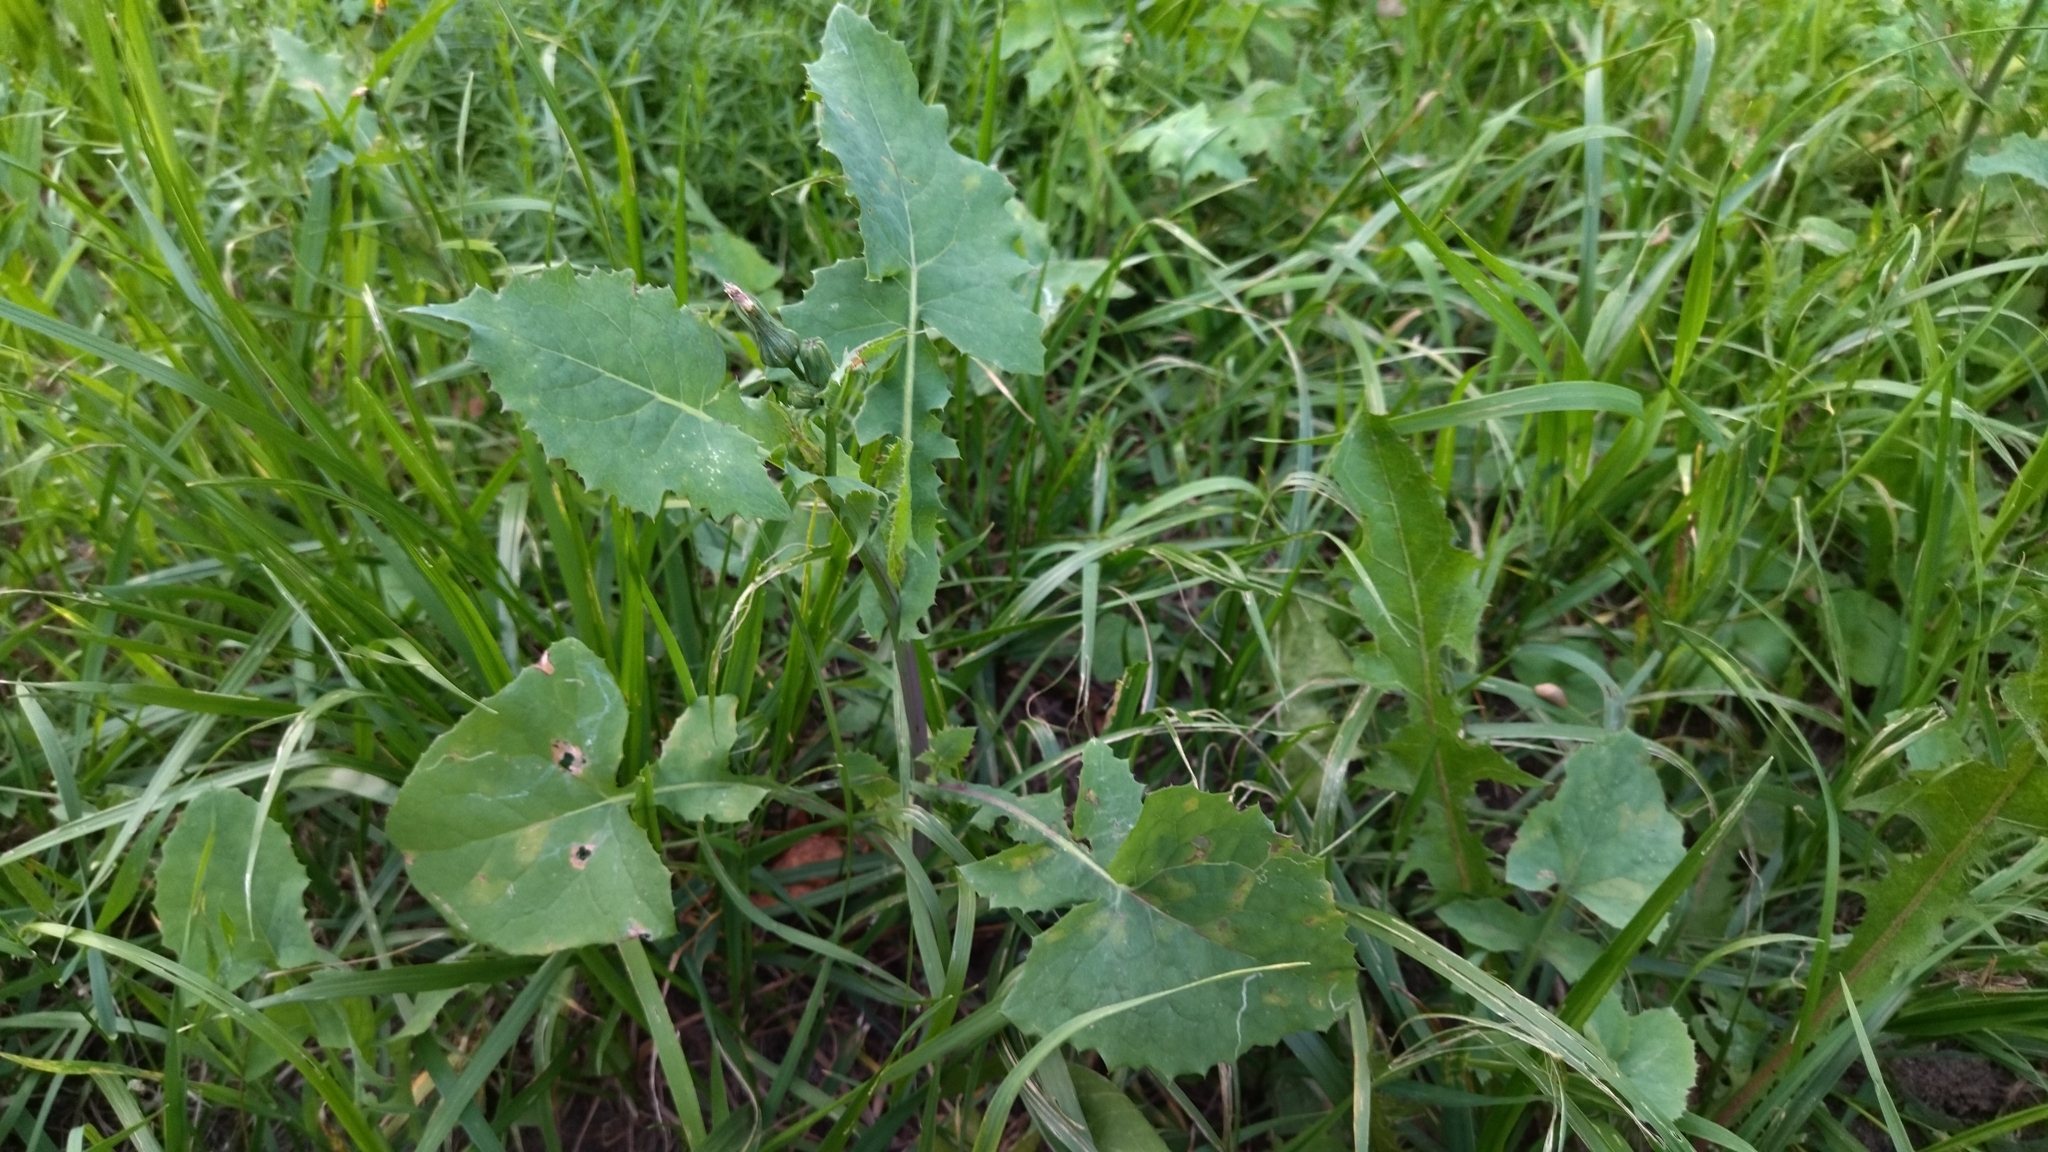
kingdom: Plantae
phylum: Tracheophyta
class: Magnoliopsida
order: Asterales
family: Asteraceae
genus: Sonchus
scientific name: Sonchus oleraceus
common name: Common sowthistle
